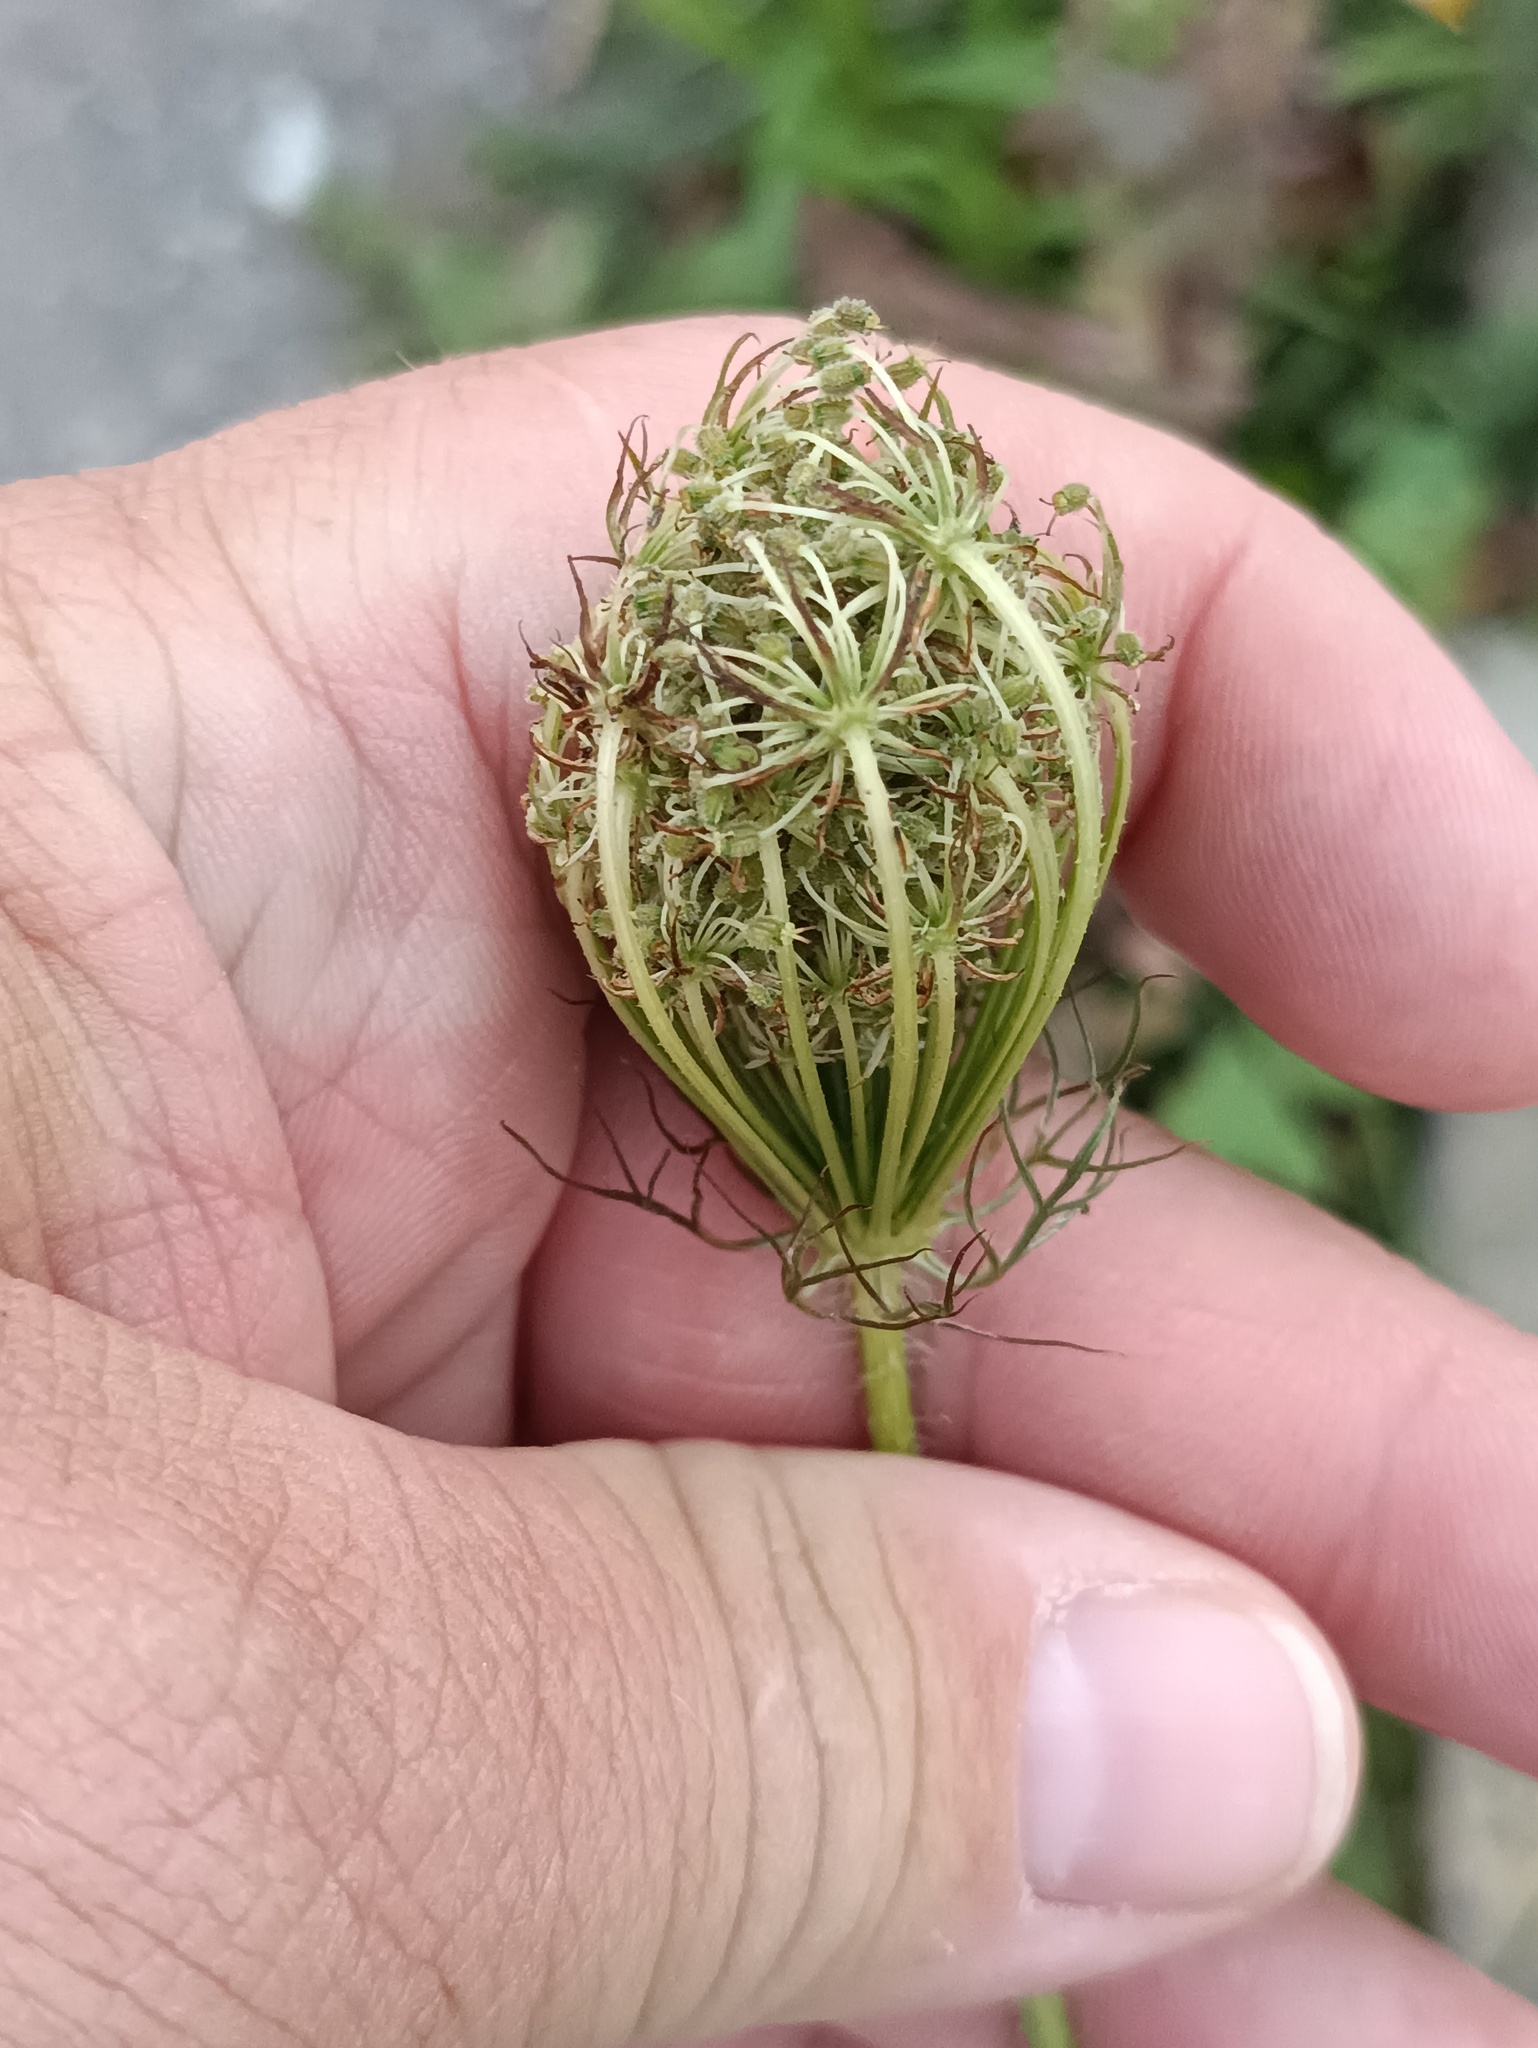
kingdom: Plantae
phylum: Tracheophyta
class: Magnoliopsida
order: Apiales
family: Apiaceae
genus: Daucus
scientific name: Daucus carota
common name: Wild carrot
